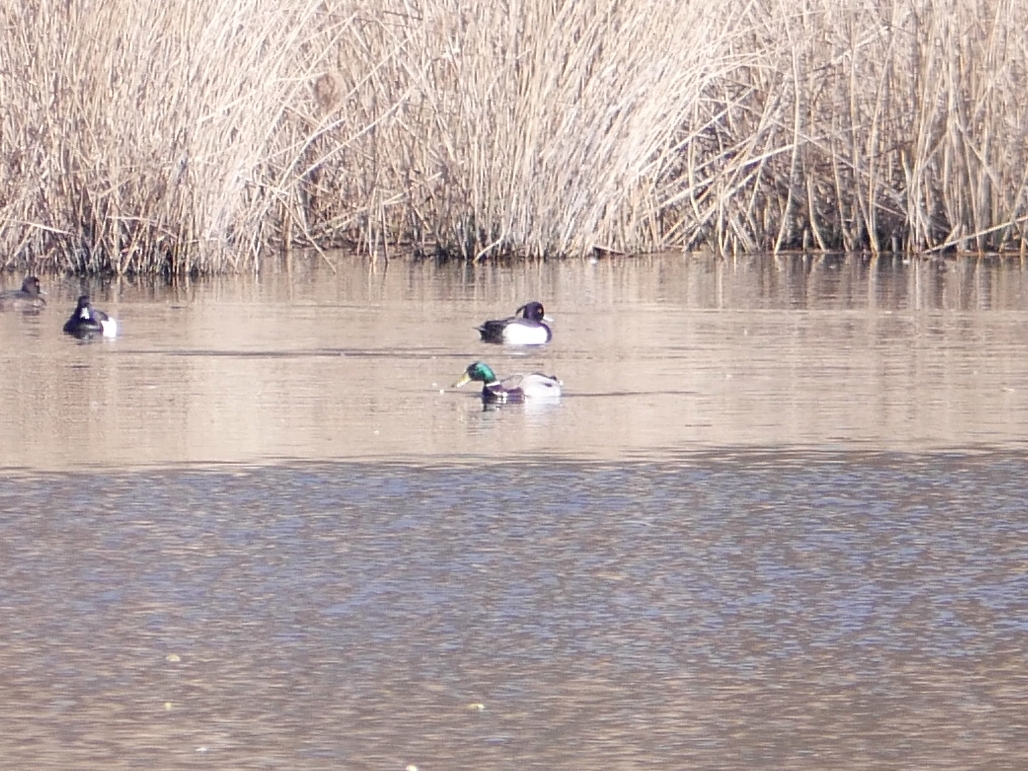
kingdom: Animalia
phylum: Chordata
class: Aves
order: Anseriformes
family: Anatidae
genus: Anas
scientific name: Anas platyrhynchos
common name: Mallard
